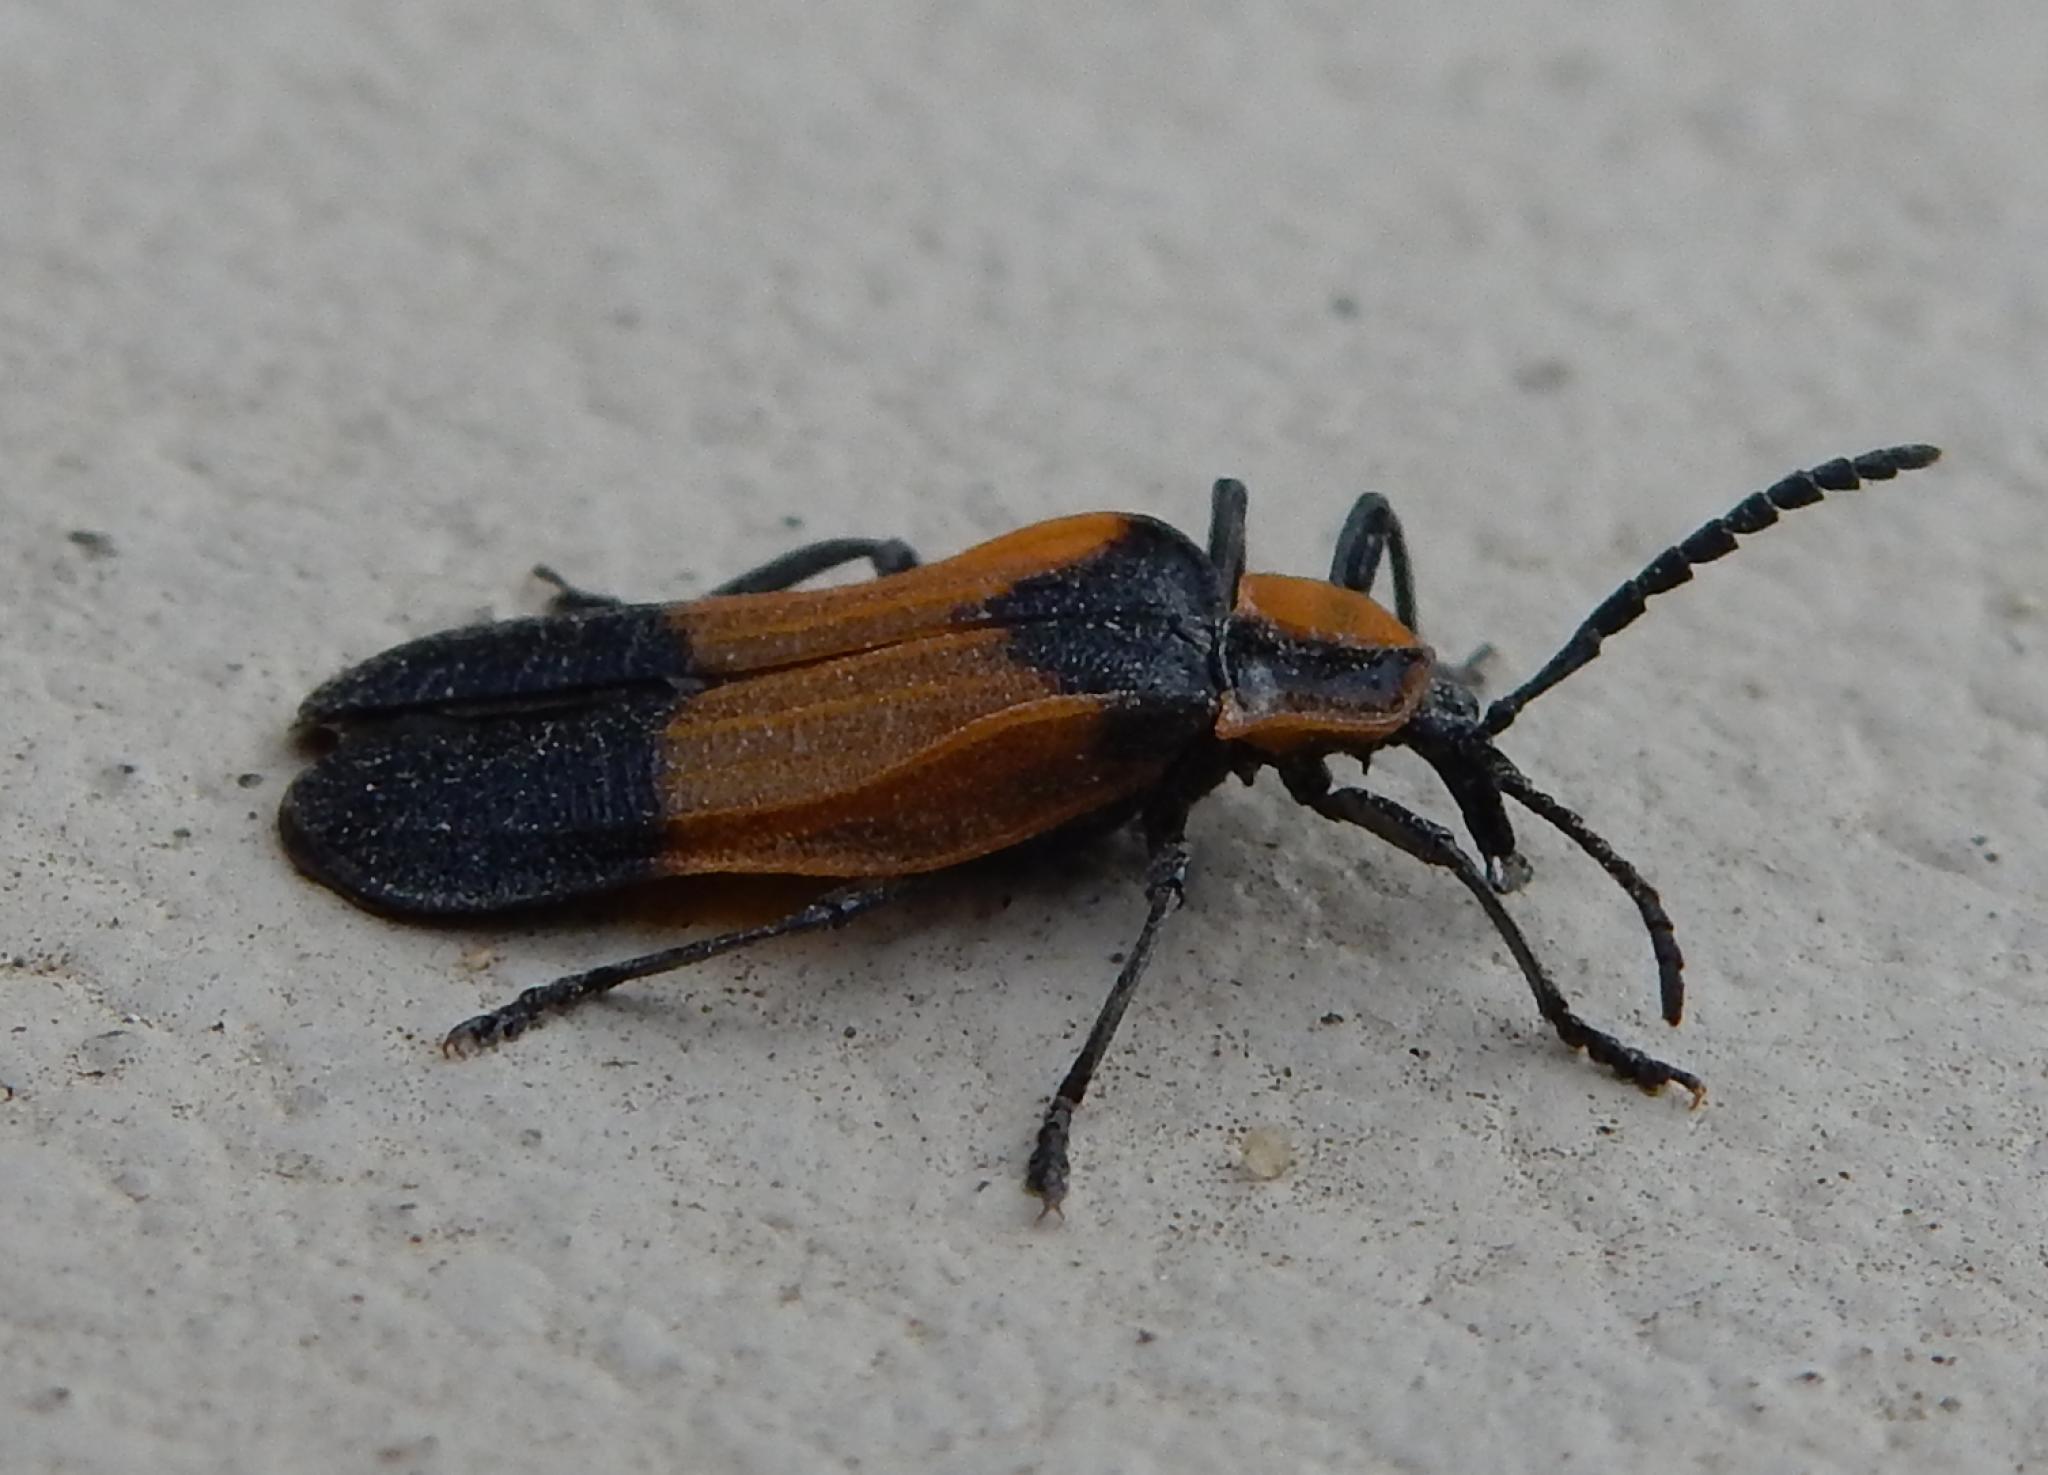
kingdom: Animalia
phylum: Arthropoda
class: Insecta
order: Coleoptera
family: Lycidae
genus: Lycus
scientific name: Lycus
